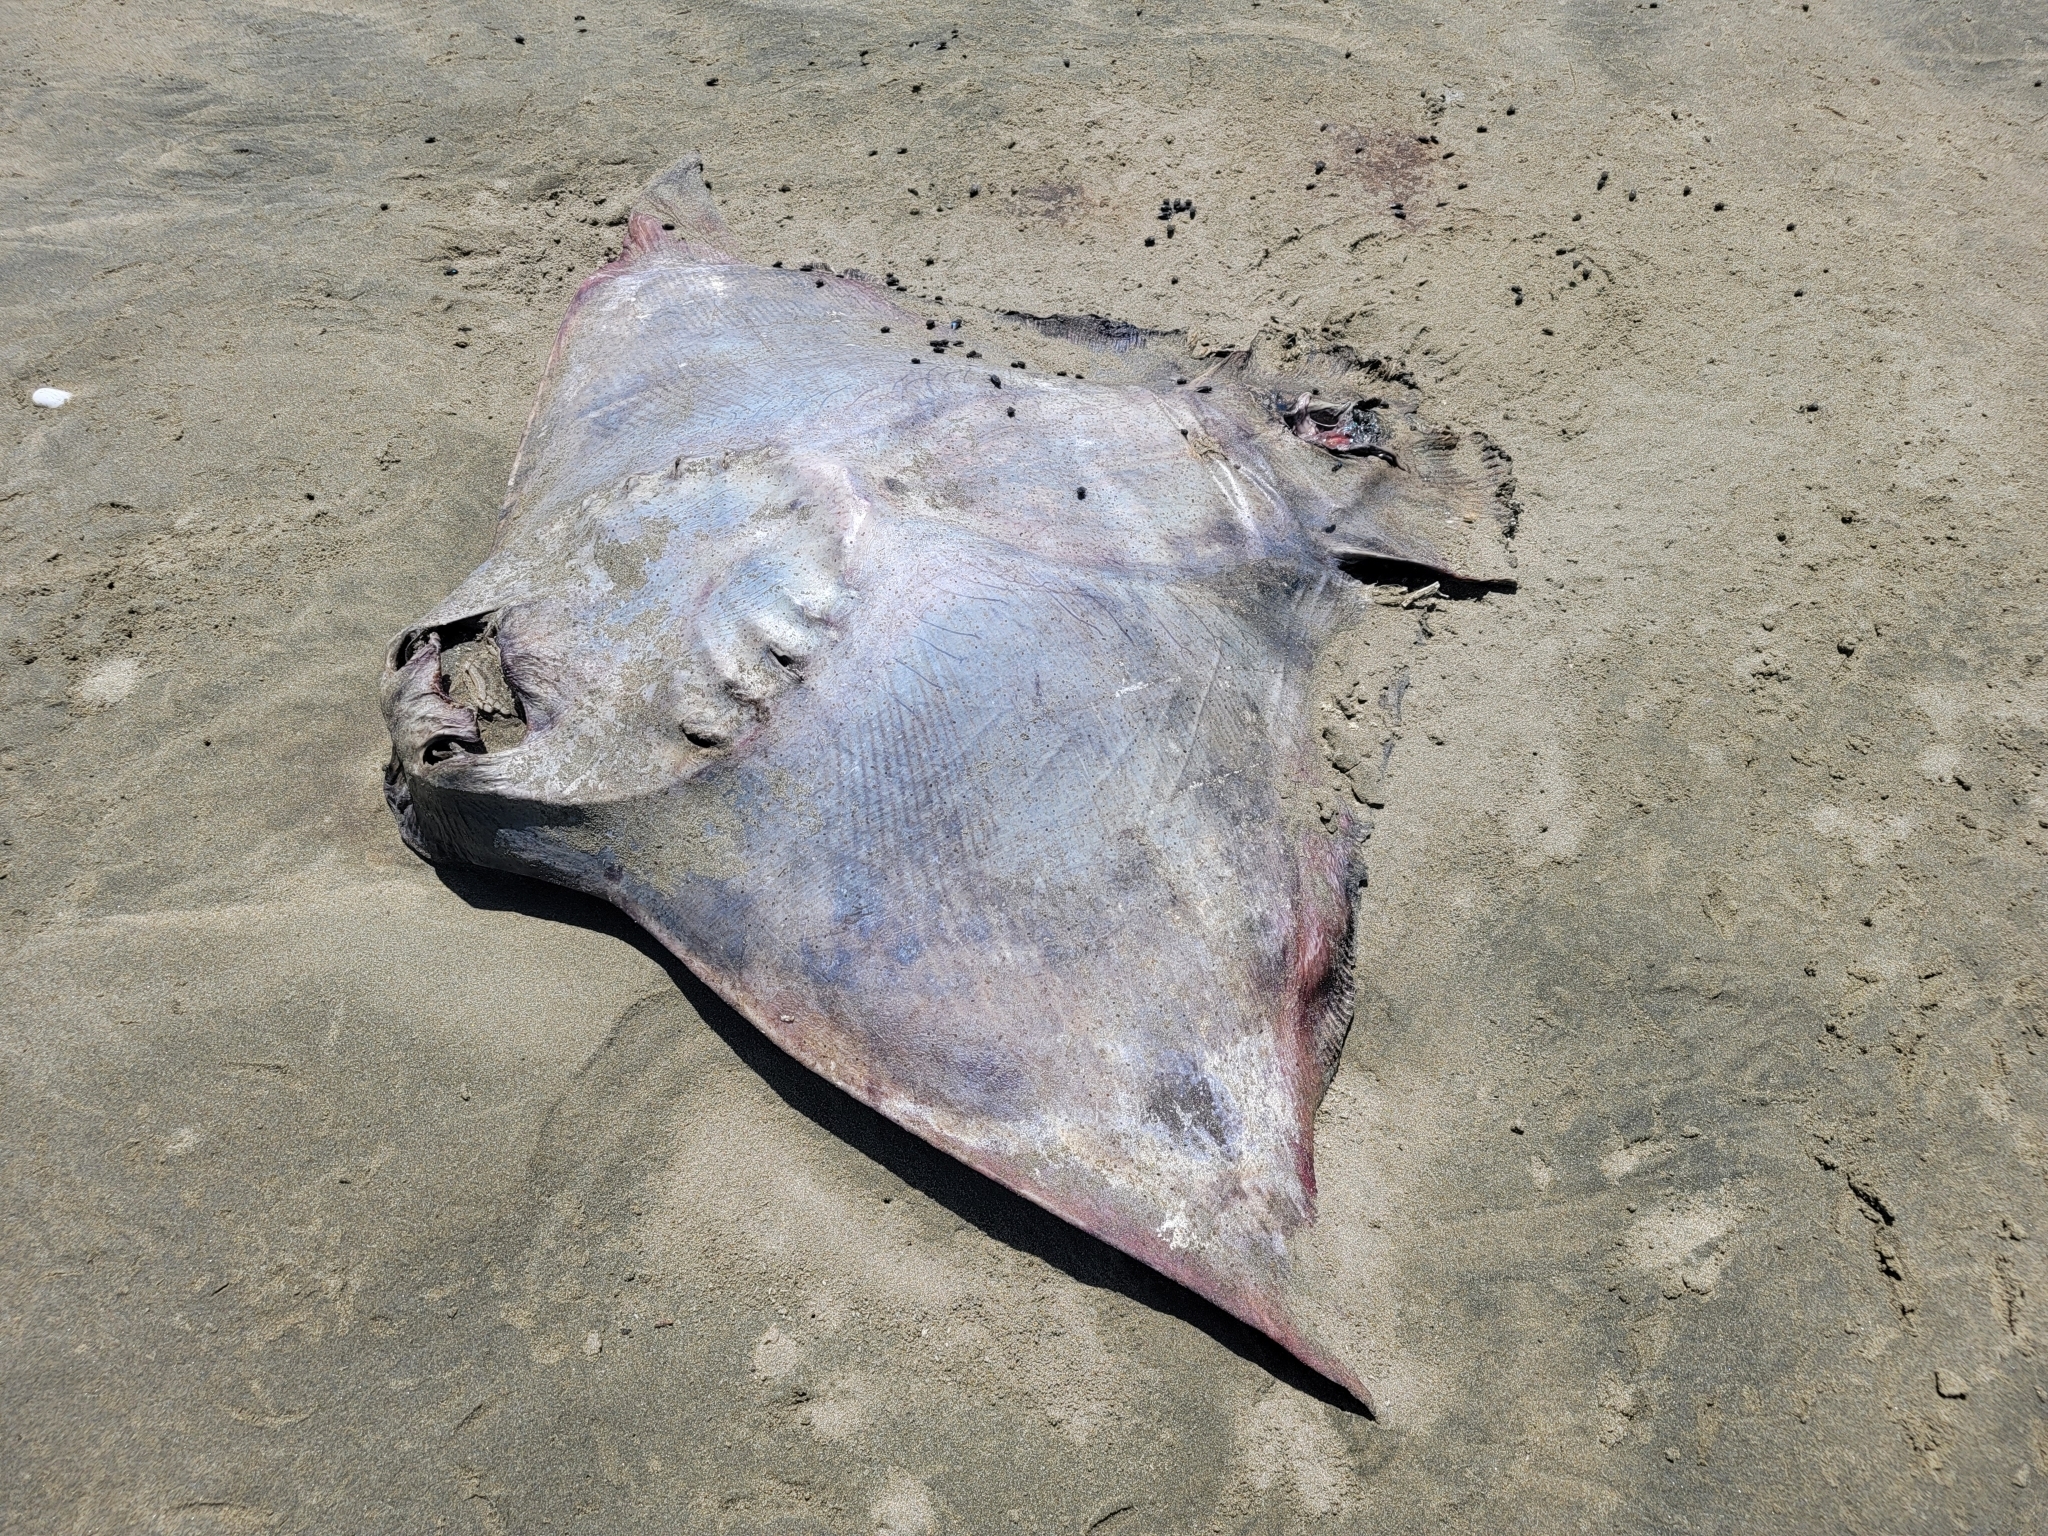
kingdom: Animalia
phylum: Chordata
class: Elasmobranchii
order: Myliobatiformes
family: Myliobatidae
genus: Myliobatis
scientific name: Myliobatis tenuicaudatus
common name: Eagle ray
